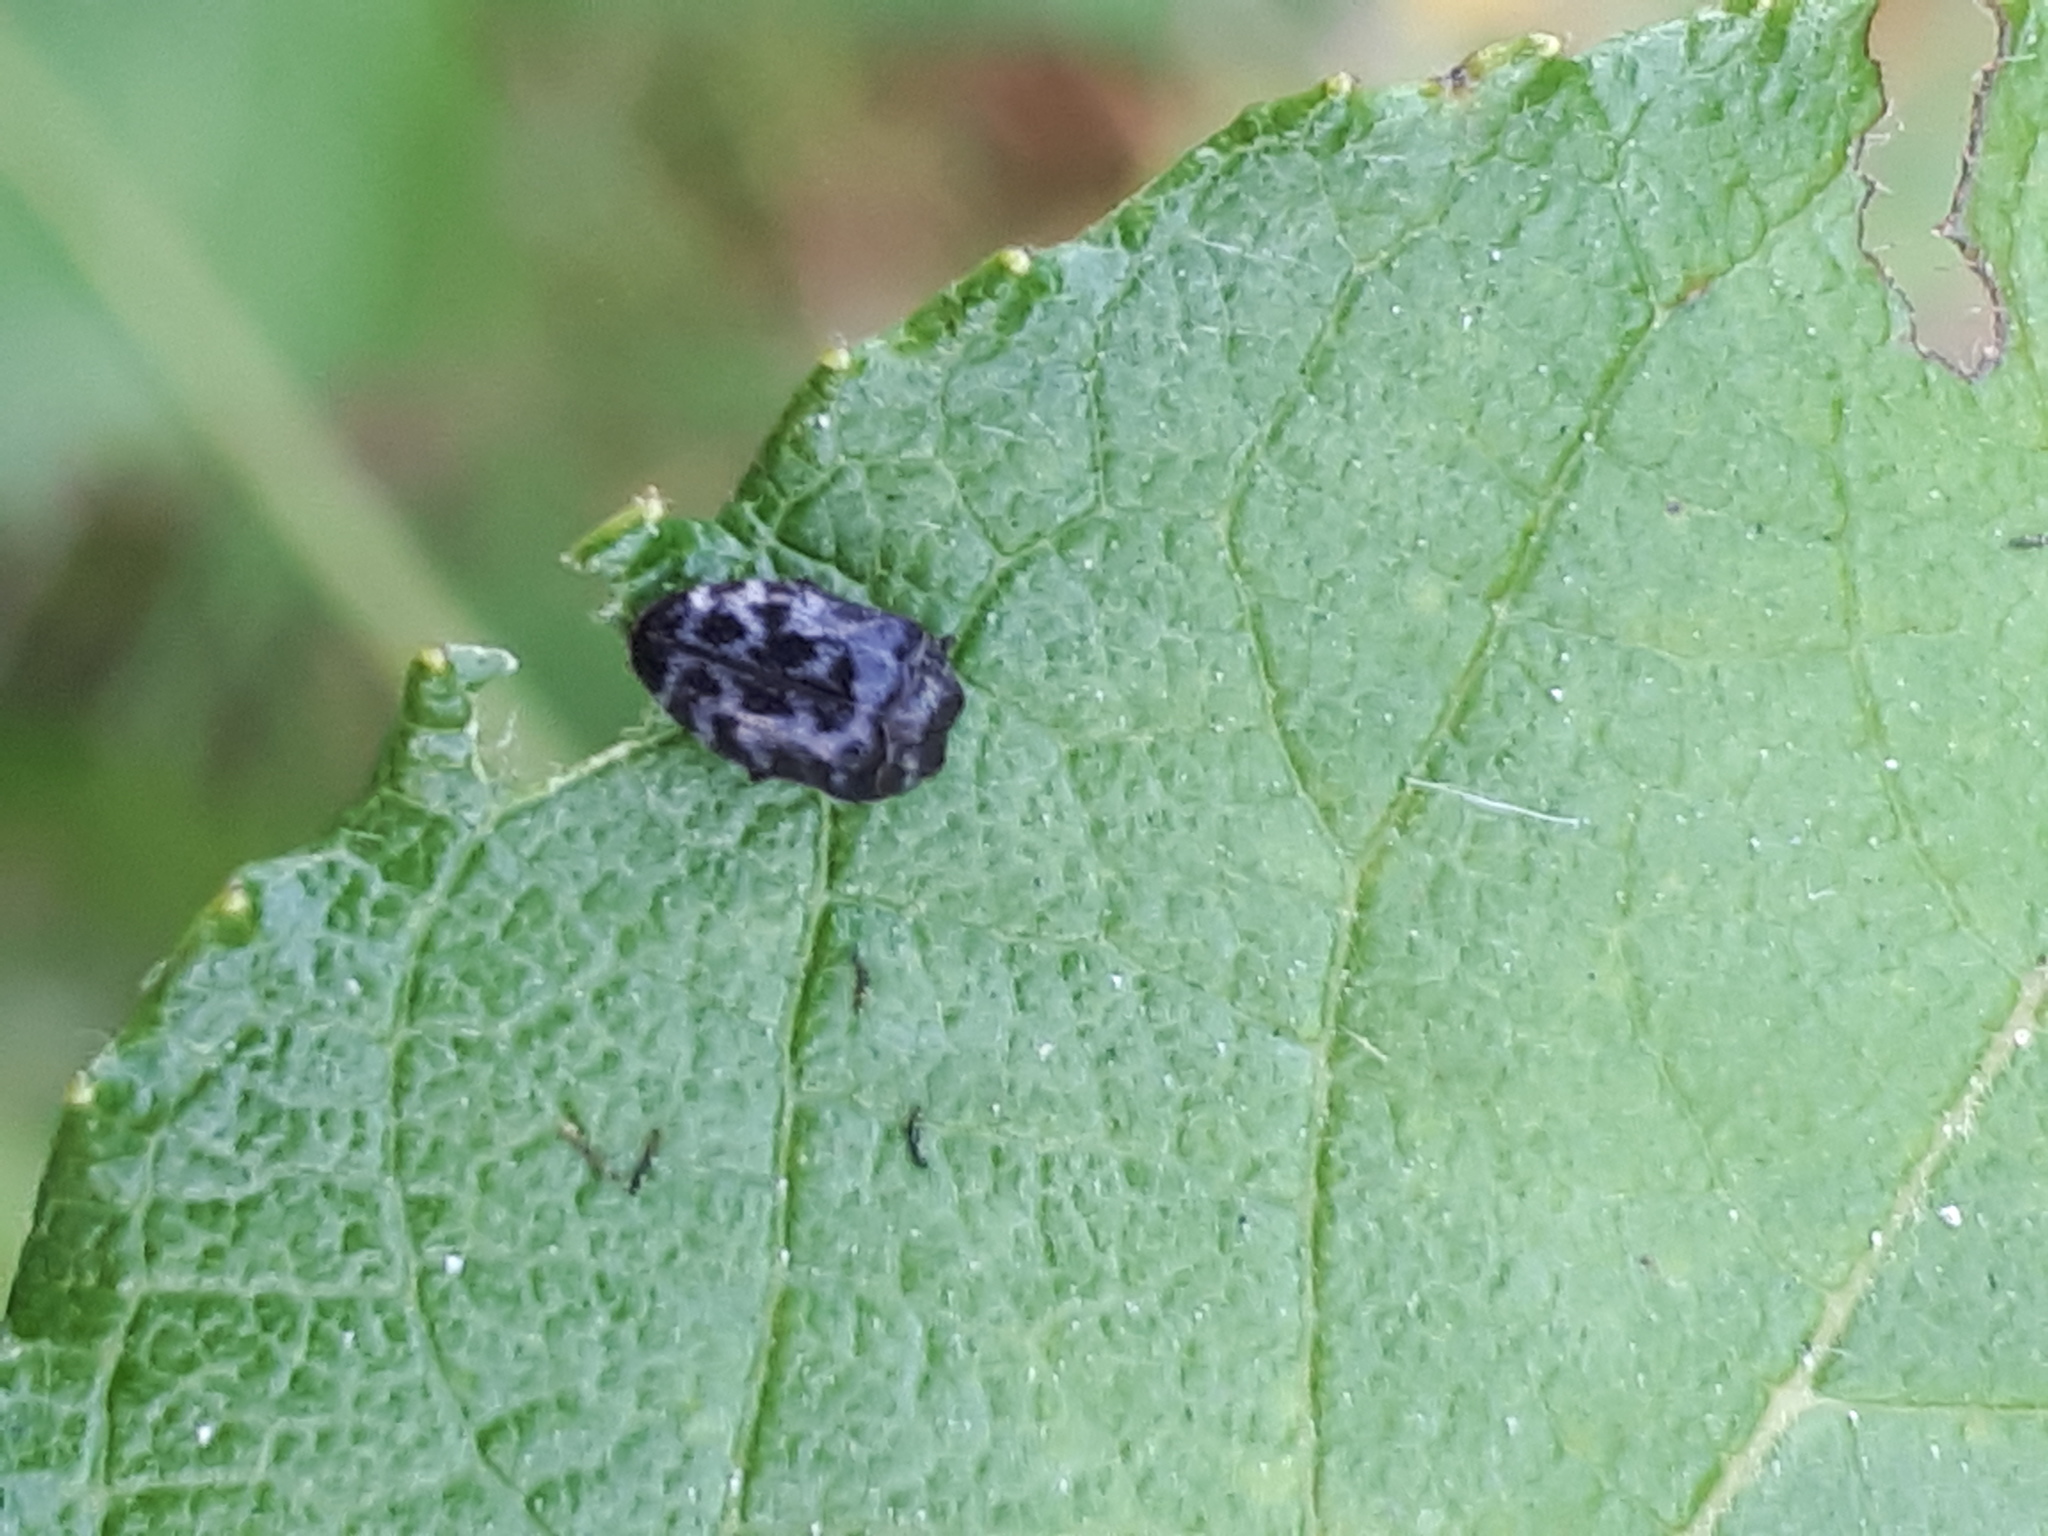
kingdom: Animalia
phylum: Arthropoda
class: Insecta
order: Coleoptera
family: Buprestidae
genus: Trachys
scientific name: Trachys minutus
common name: Metallic wood-boring beetle
